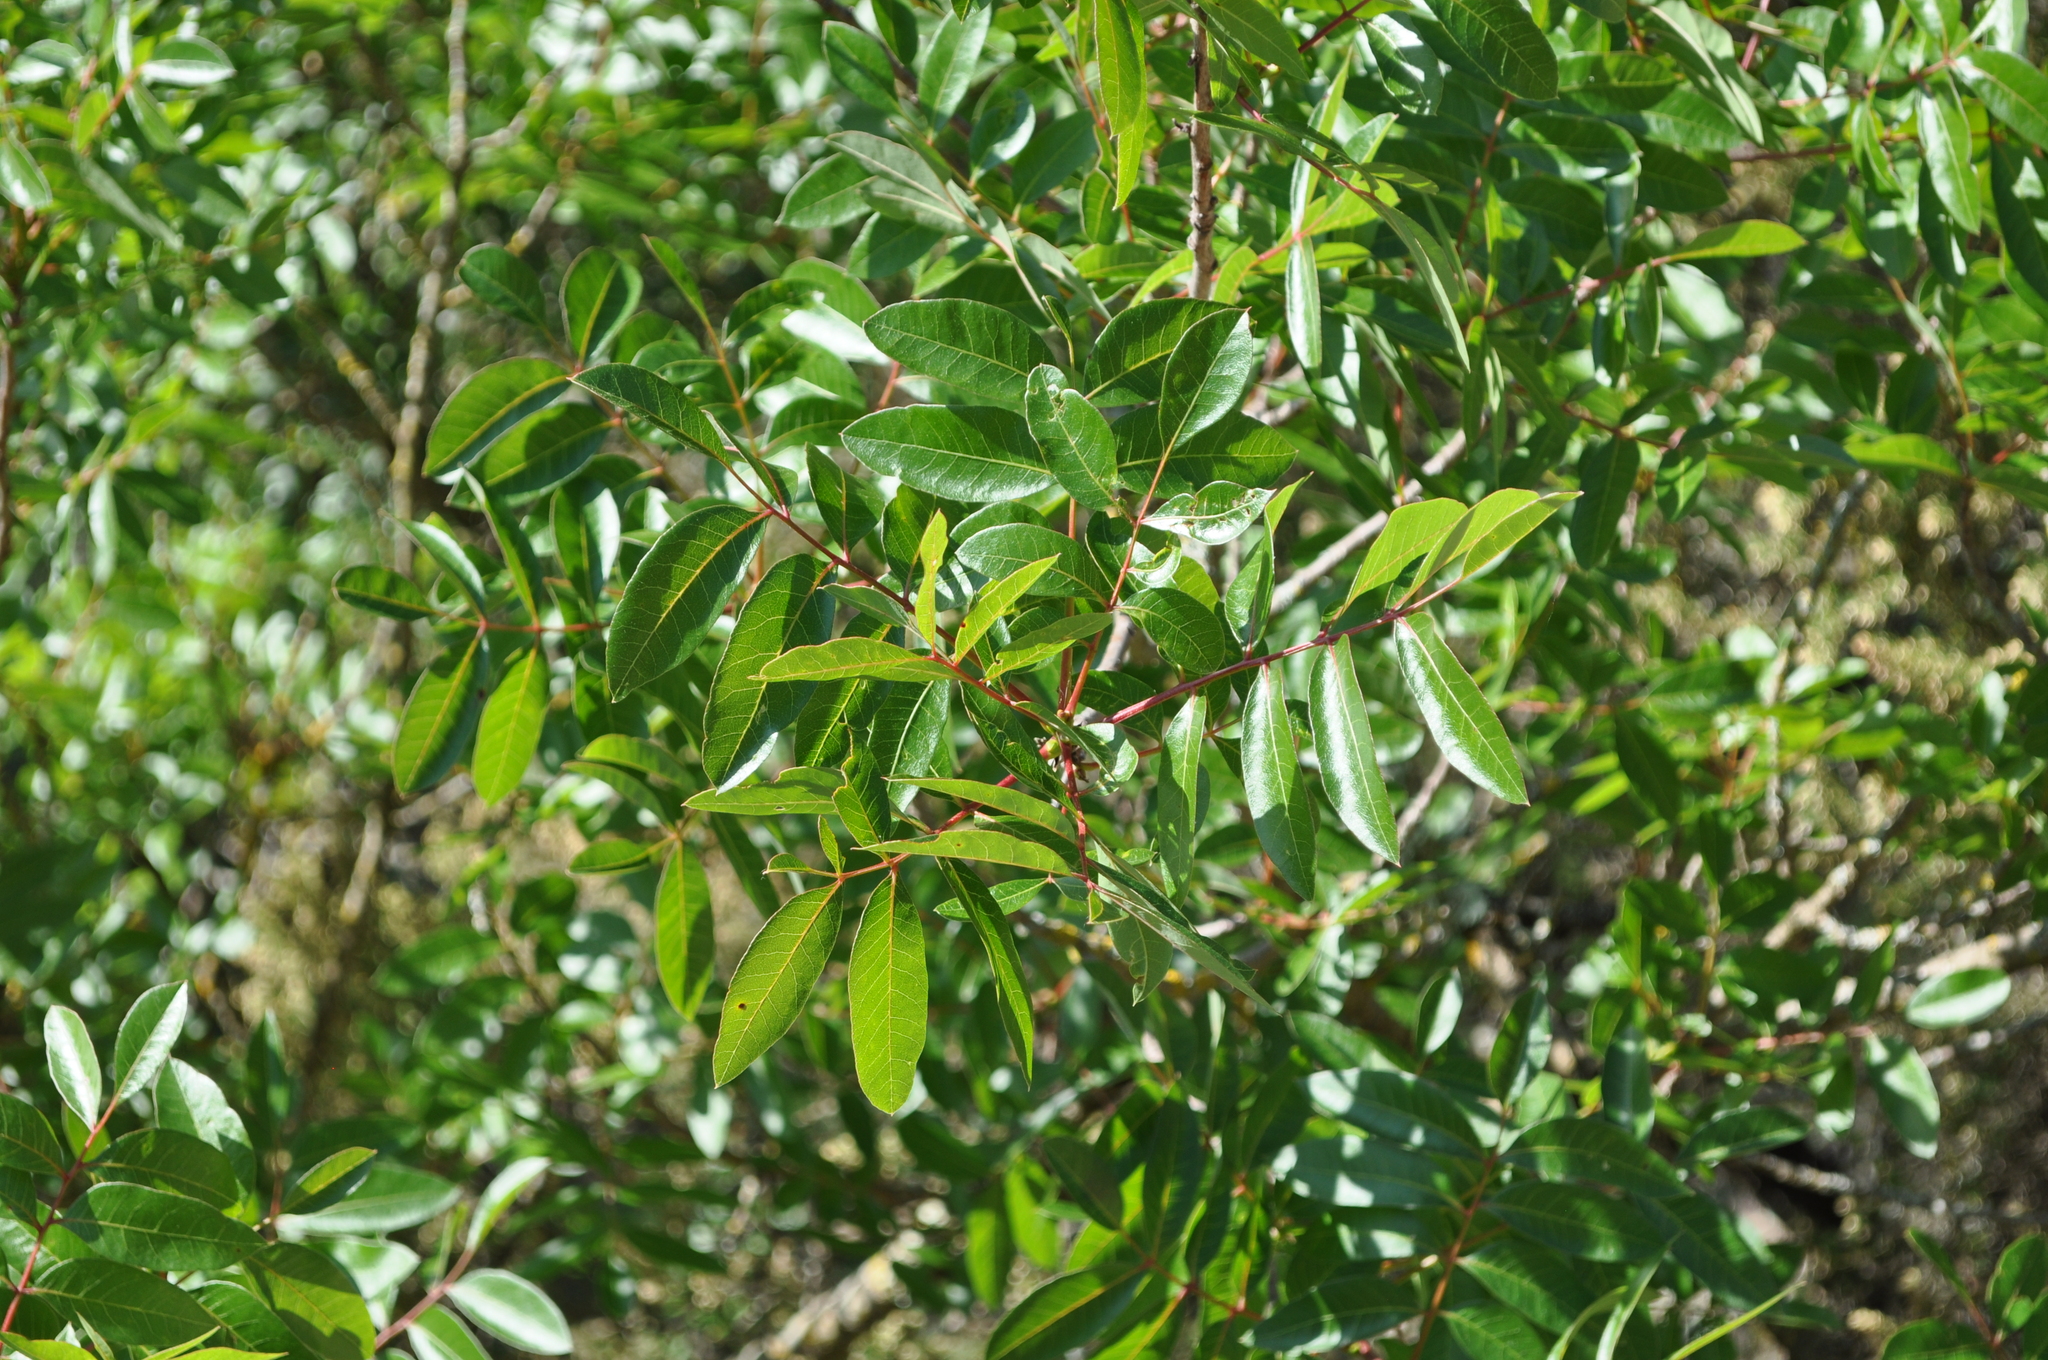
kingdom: Plantae
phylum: Tracheophyta
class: Magnoliopsida
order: Sapindales
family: Anacardiaceae
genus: Pistacia
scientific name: Pistacia terebinthus
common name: Terebinth
